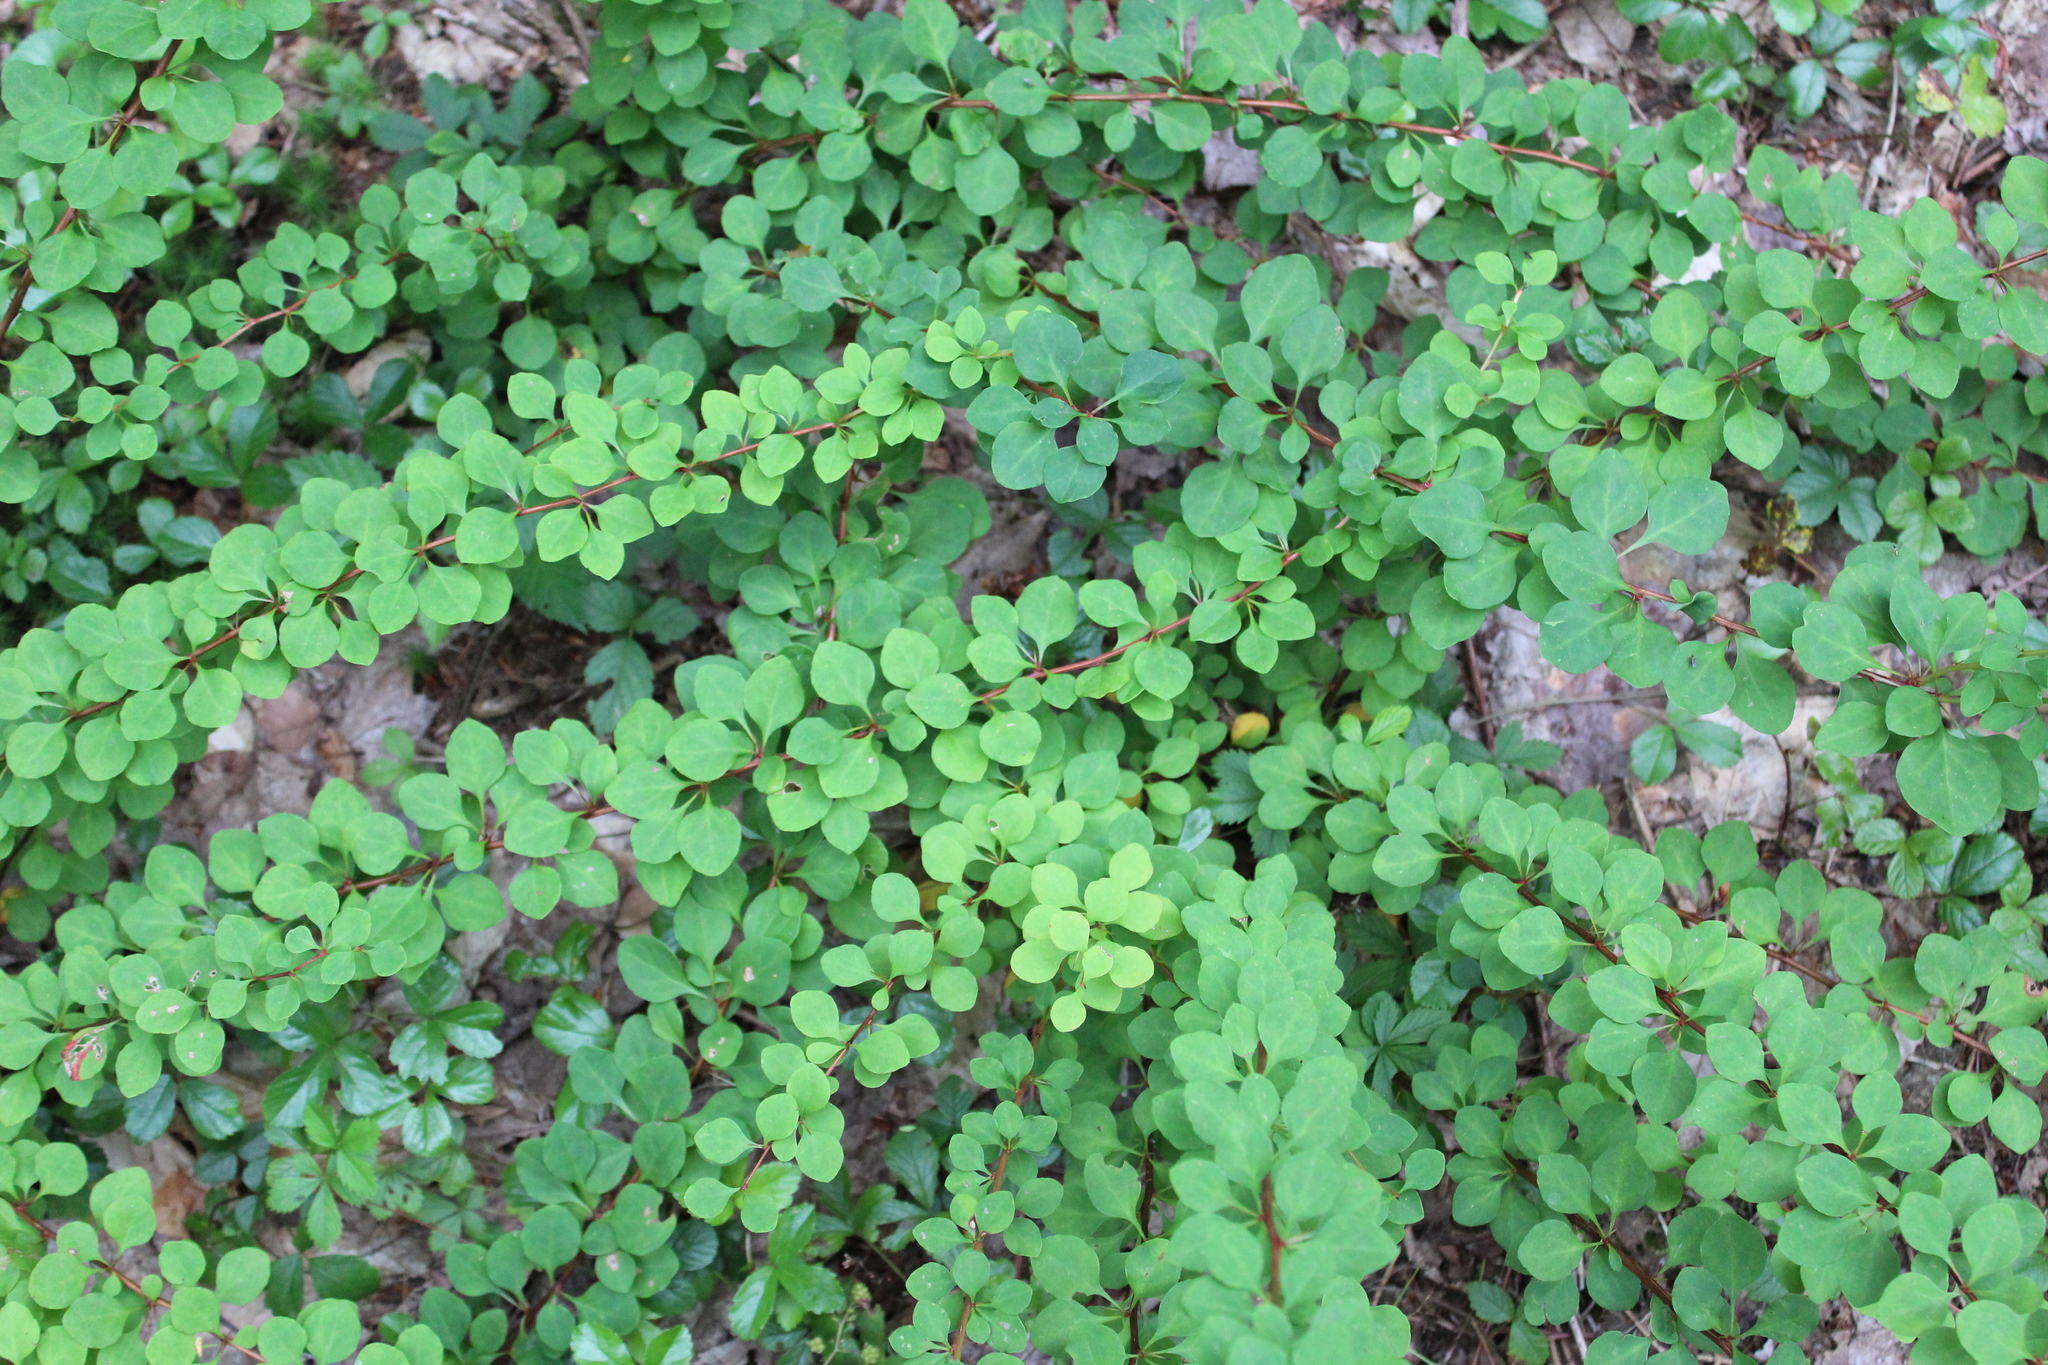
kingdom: Plantae
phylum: Tracheophyta
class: Magnoliopsida
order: Ranunculales
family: Berberidaceae
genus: Berberis
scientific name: Berberis thunbergii
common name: Japanese barberry
